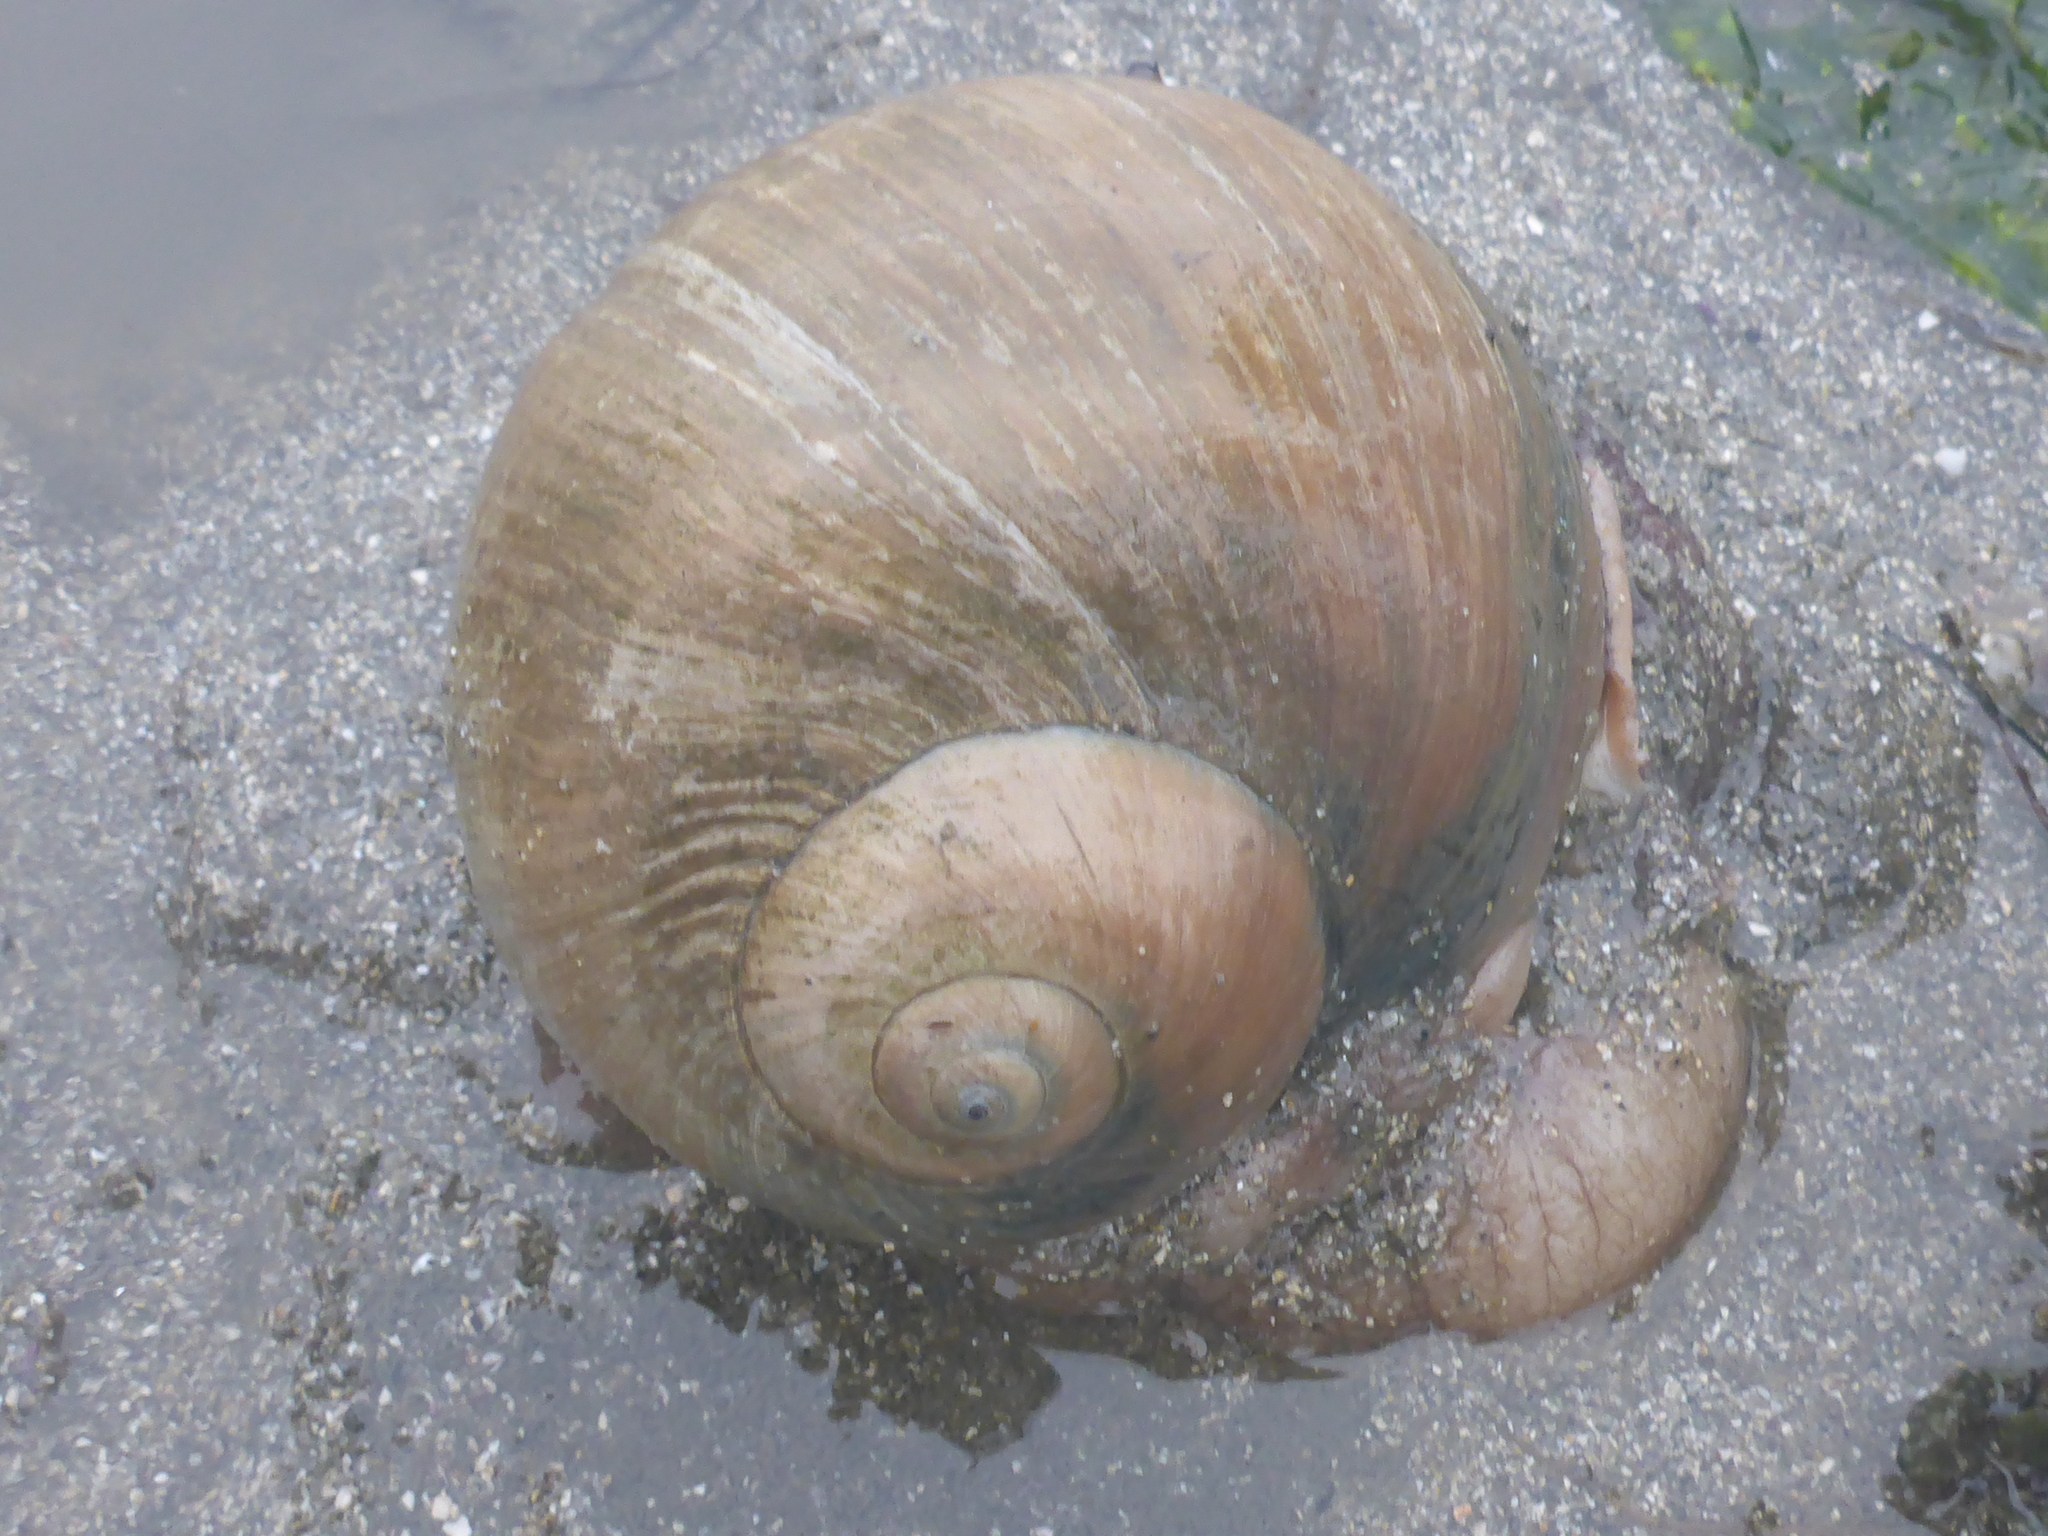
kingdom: Animalia
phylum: Mollusca
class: Gastropoda
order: Littorinimorpha
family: Naticidae
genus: Neverita
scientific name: Neverita lewisii
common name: Lewis' moonsnail
